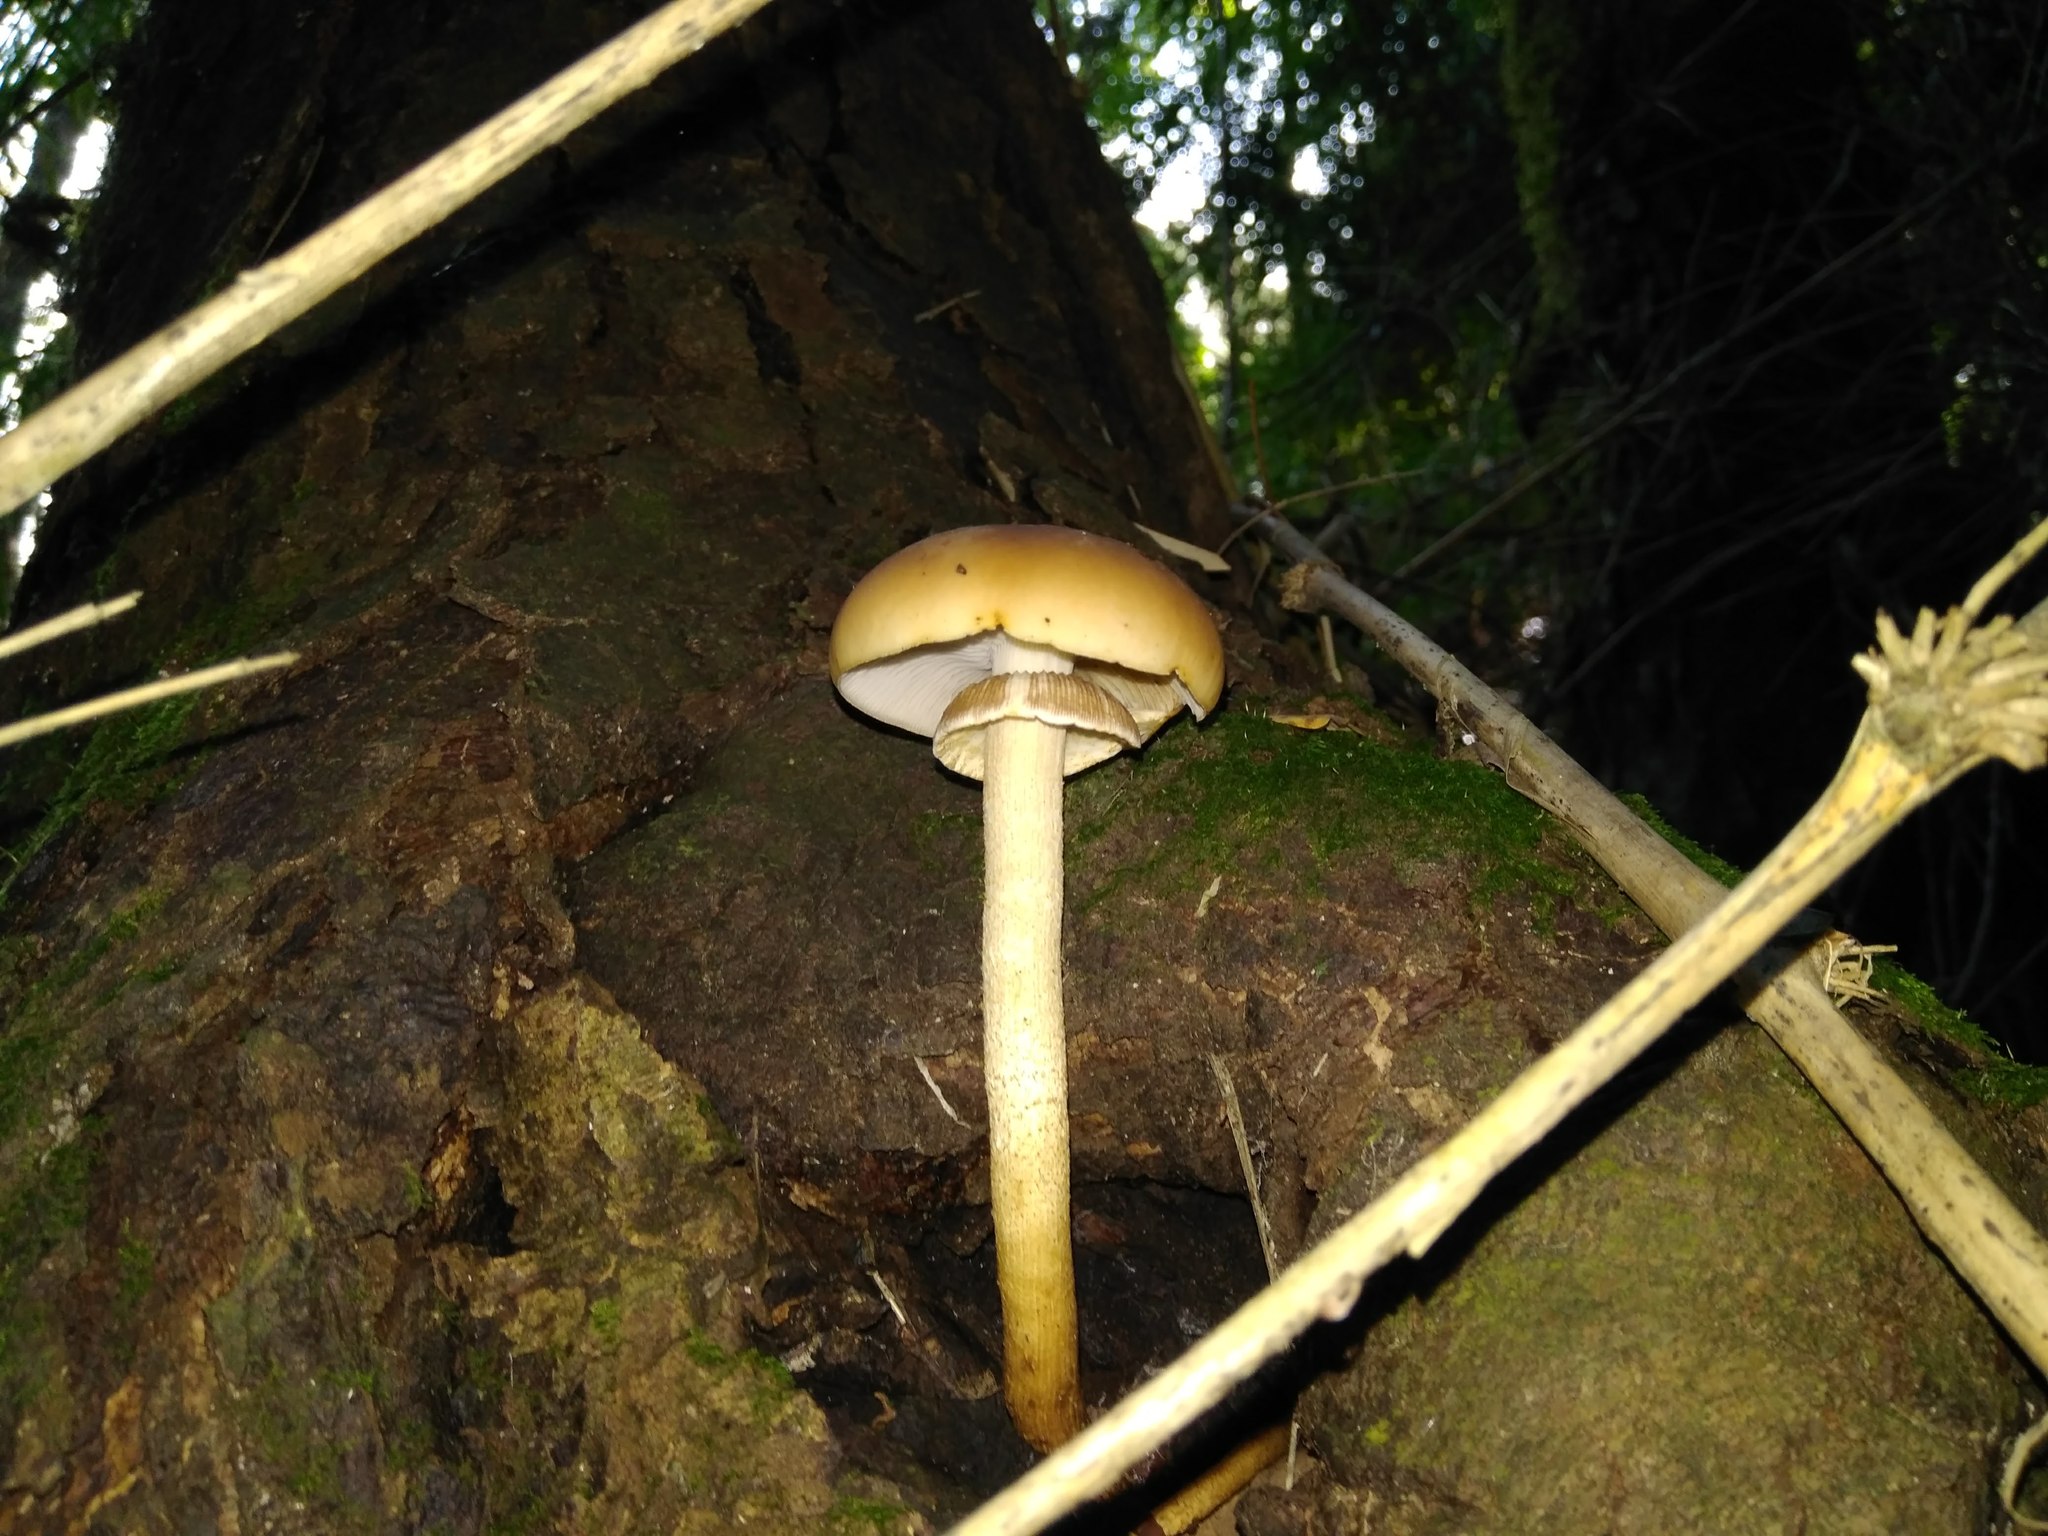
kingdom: Fungi
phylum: Basidiomycota
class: Agaricomycetes
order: Agaricales
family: Strophariaceae
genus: Agrocybe
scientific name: Agrocybe praecox
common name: Spring fieldcap
